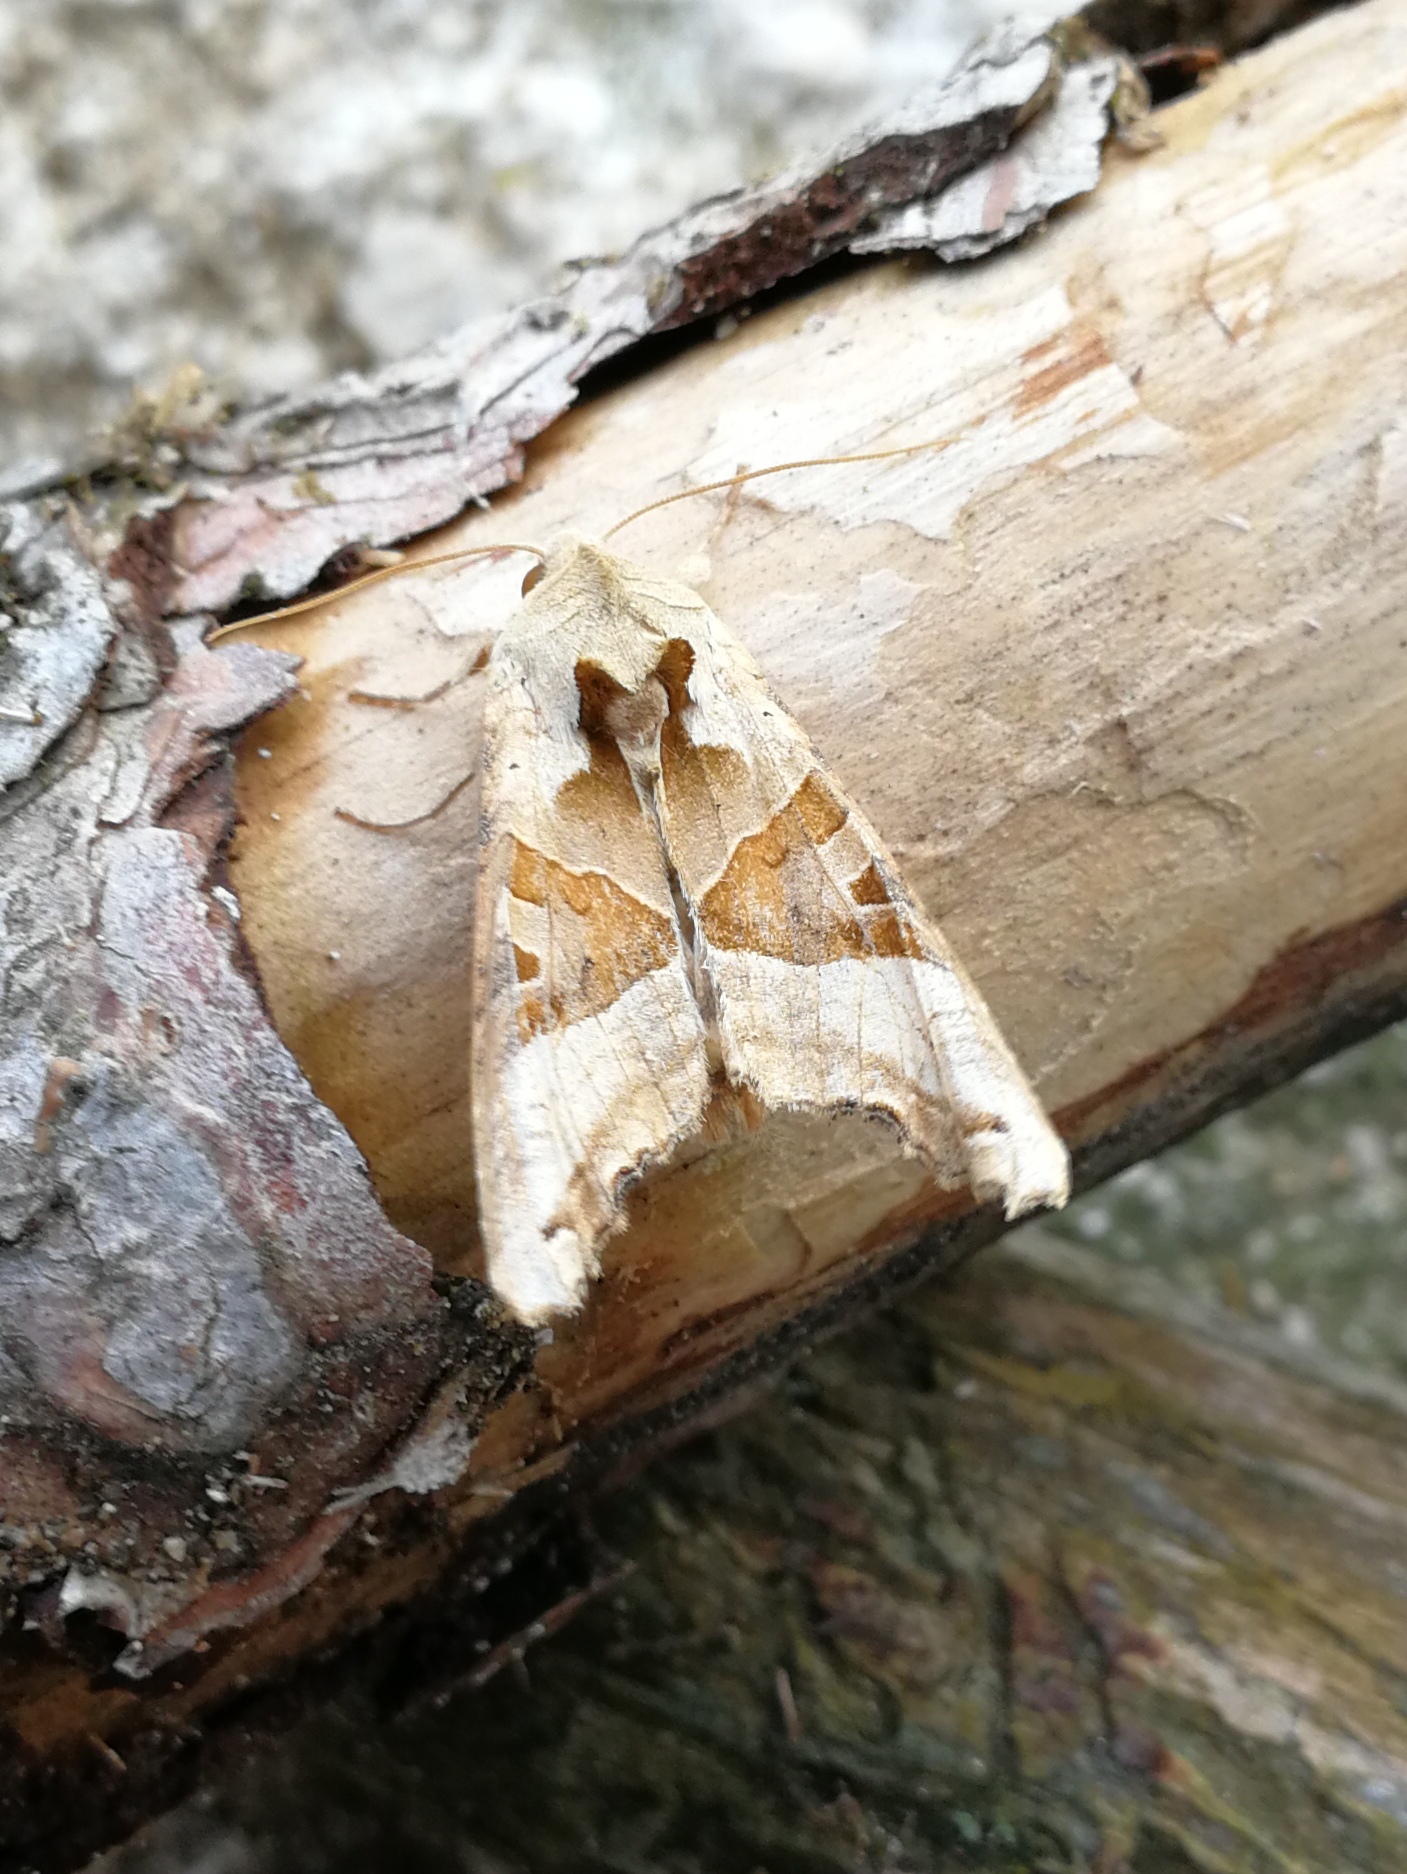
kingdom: Animalia
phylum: Arthropoda
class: Insecta
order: Lepidoptera
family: Noctuidae
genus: Phlogophora
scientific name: Phlogophora meticulosa
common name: Angle shades
